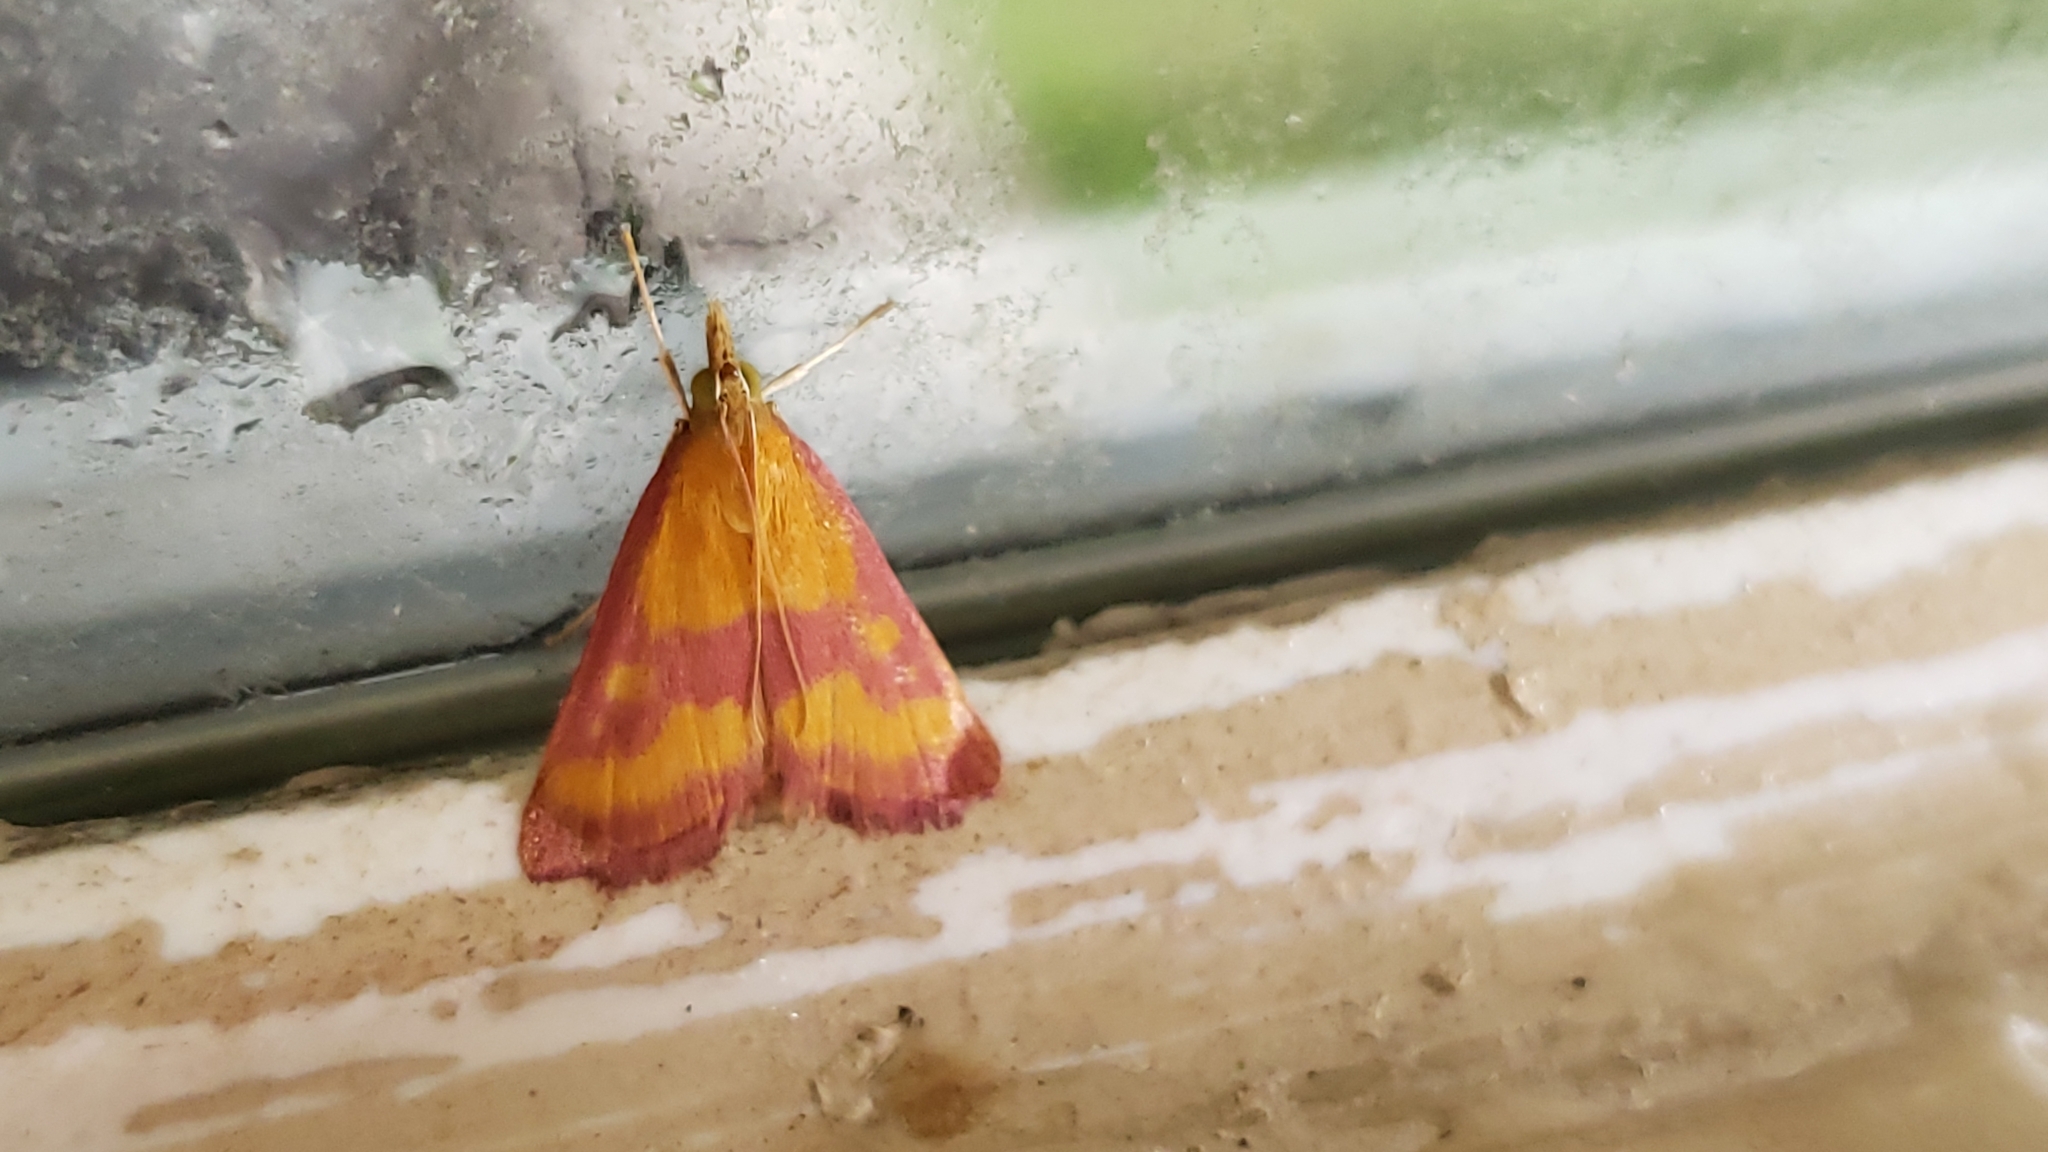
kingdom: Animalia
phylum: Arthropoda
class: Insecta
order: Lepidoptera
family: Crambidae
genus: Pyrausta
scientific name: Pyrausta laticlavia
